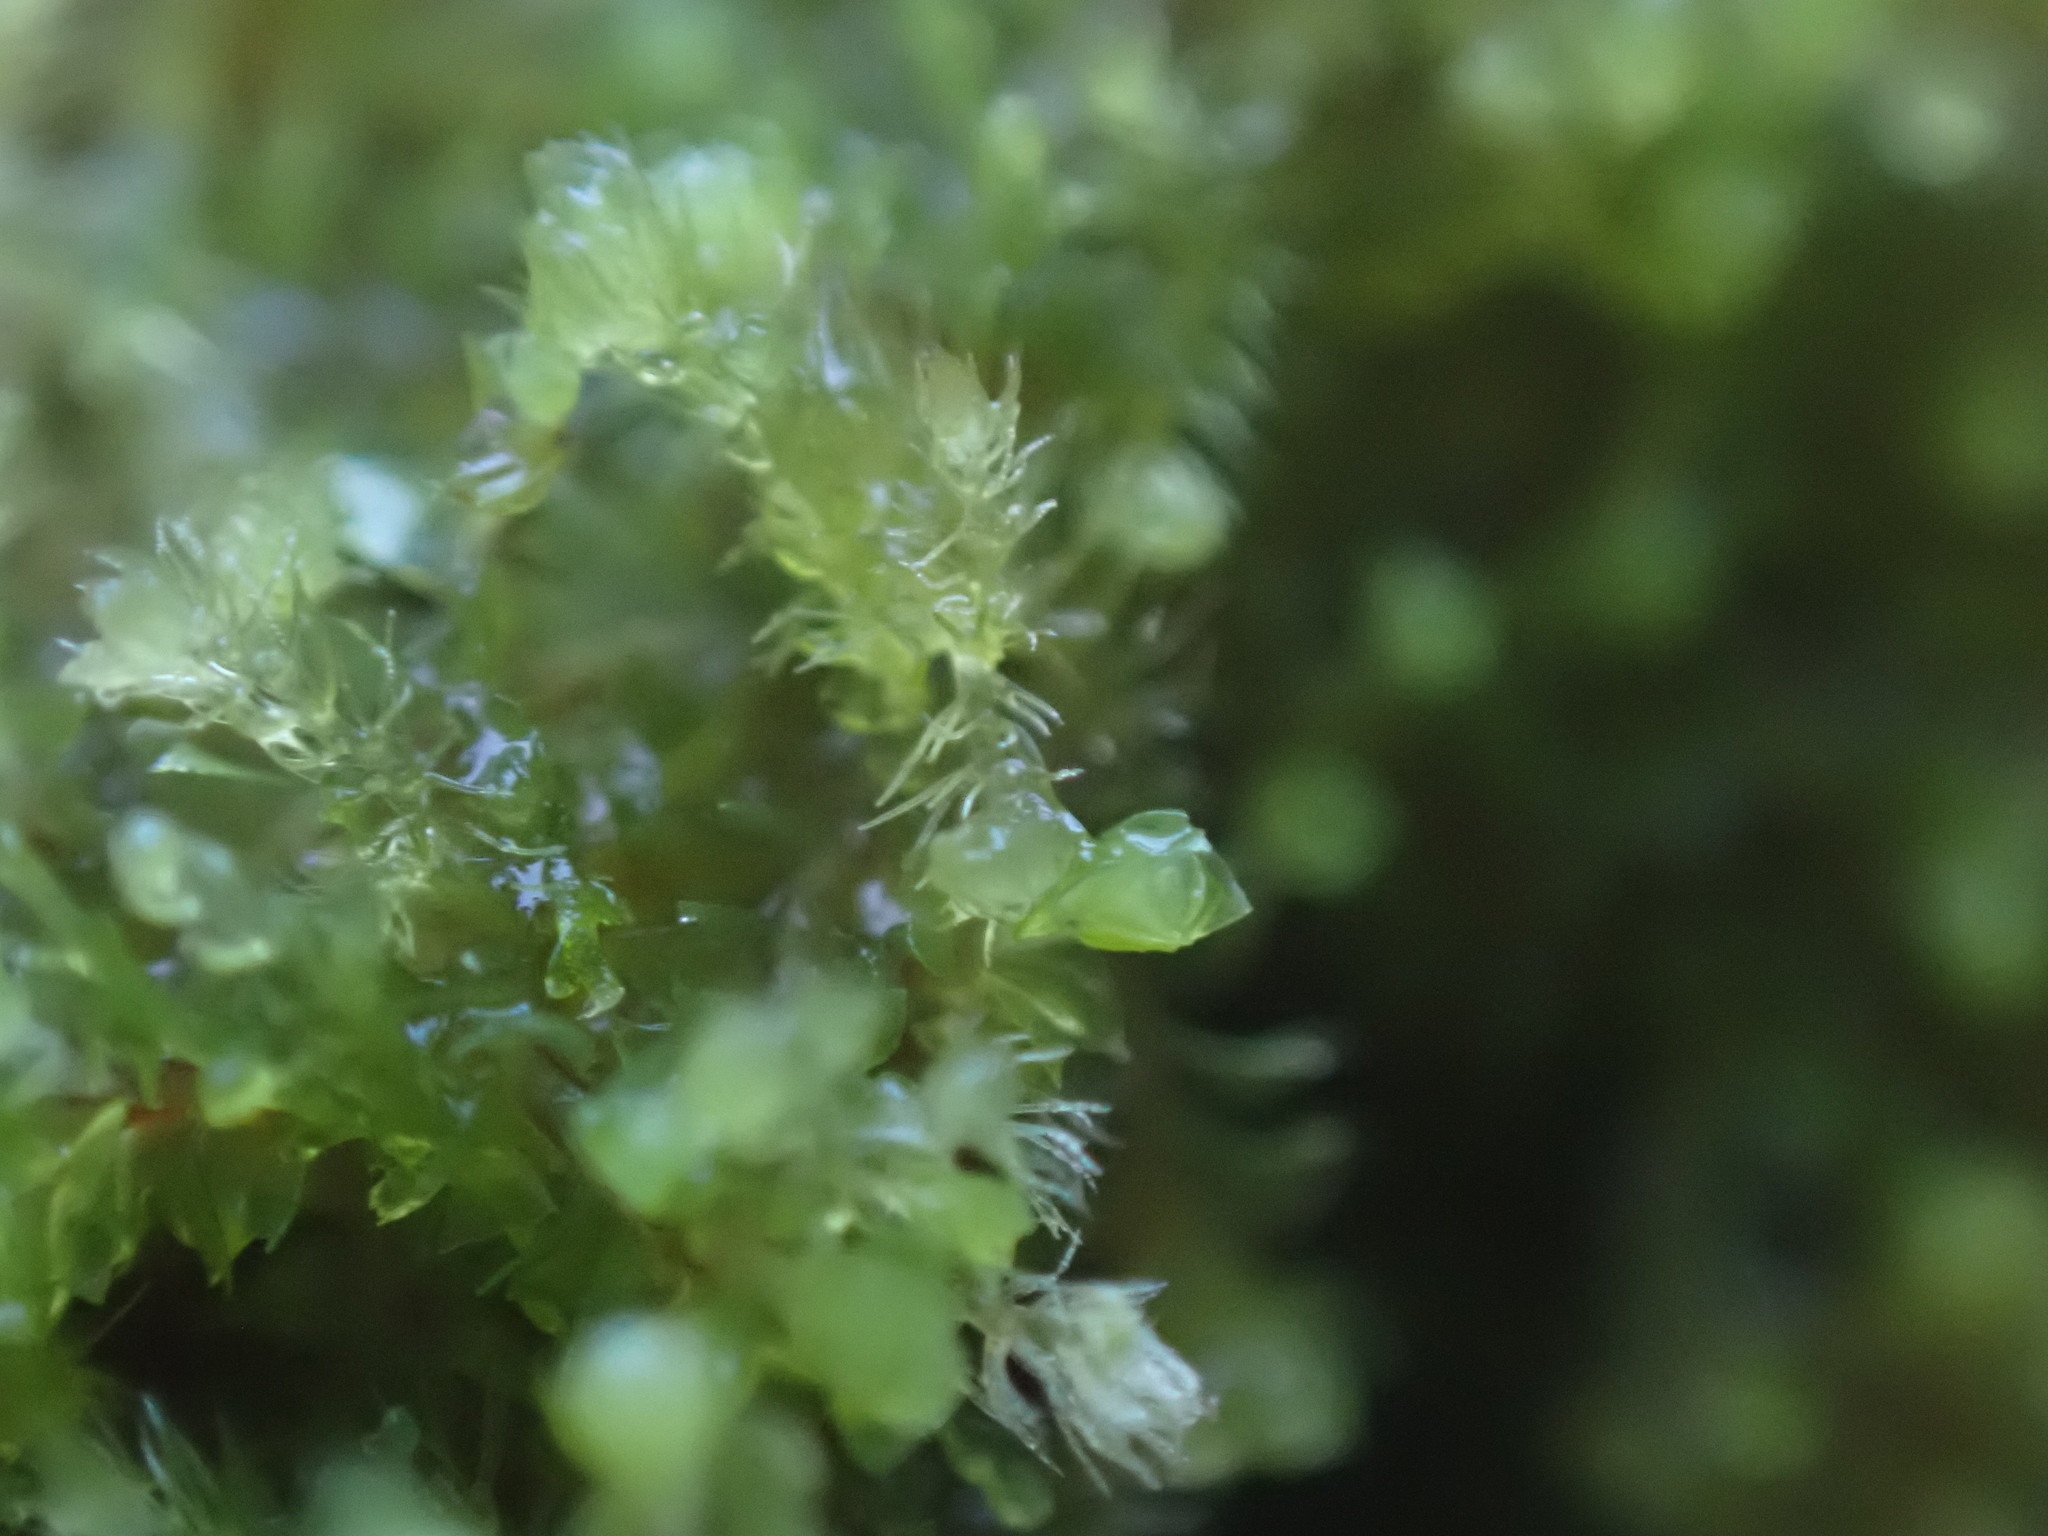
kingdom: Plantae
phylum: Marchantiophyta
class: Jungermanniopsida
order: Jungermanniales
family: Blepharostomataceae
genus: Blepharostoma
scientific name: Blepharostoma trichophyllum
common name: Hairy threadwort
